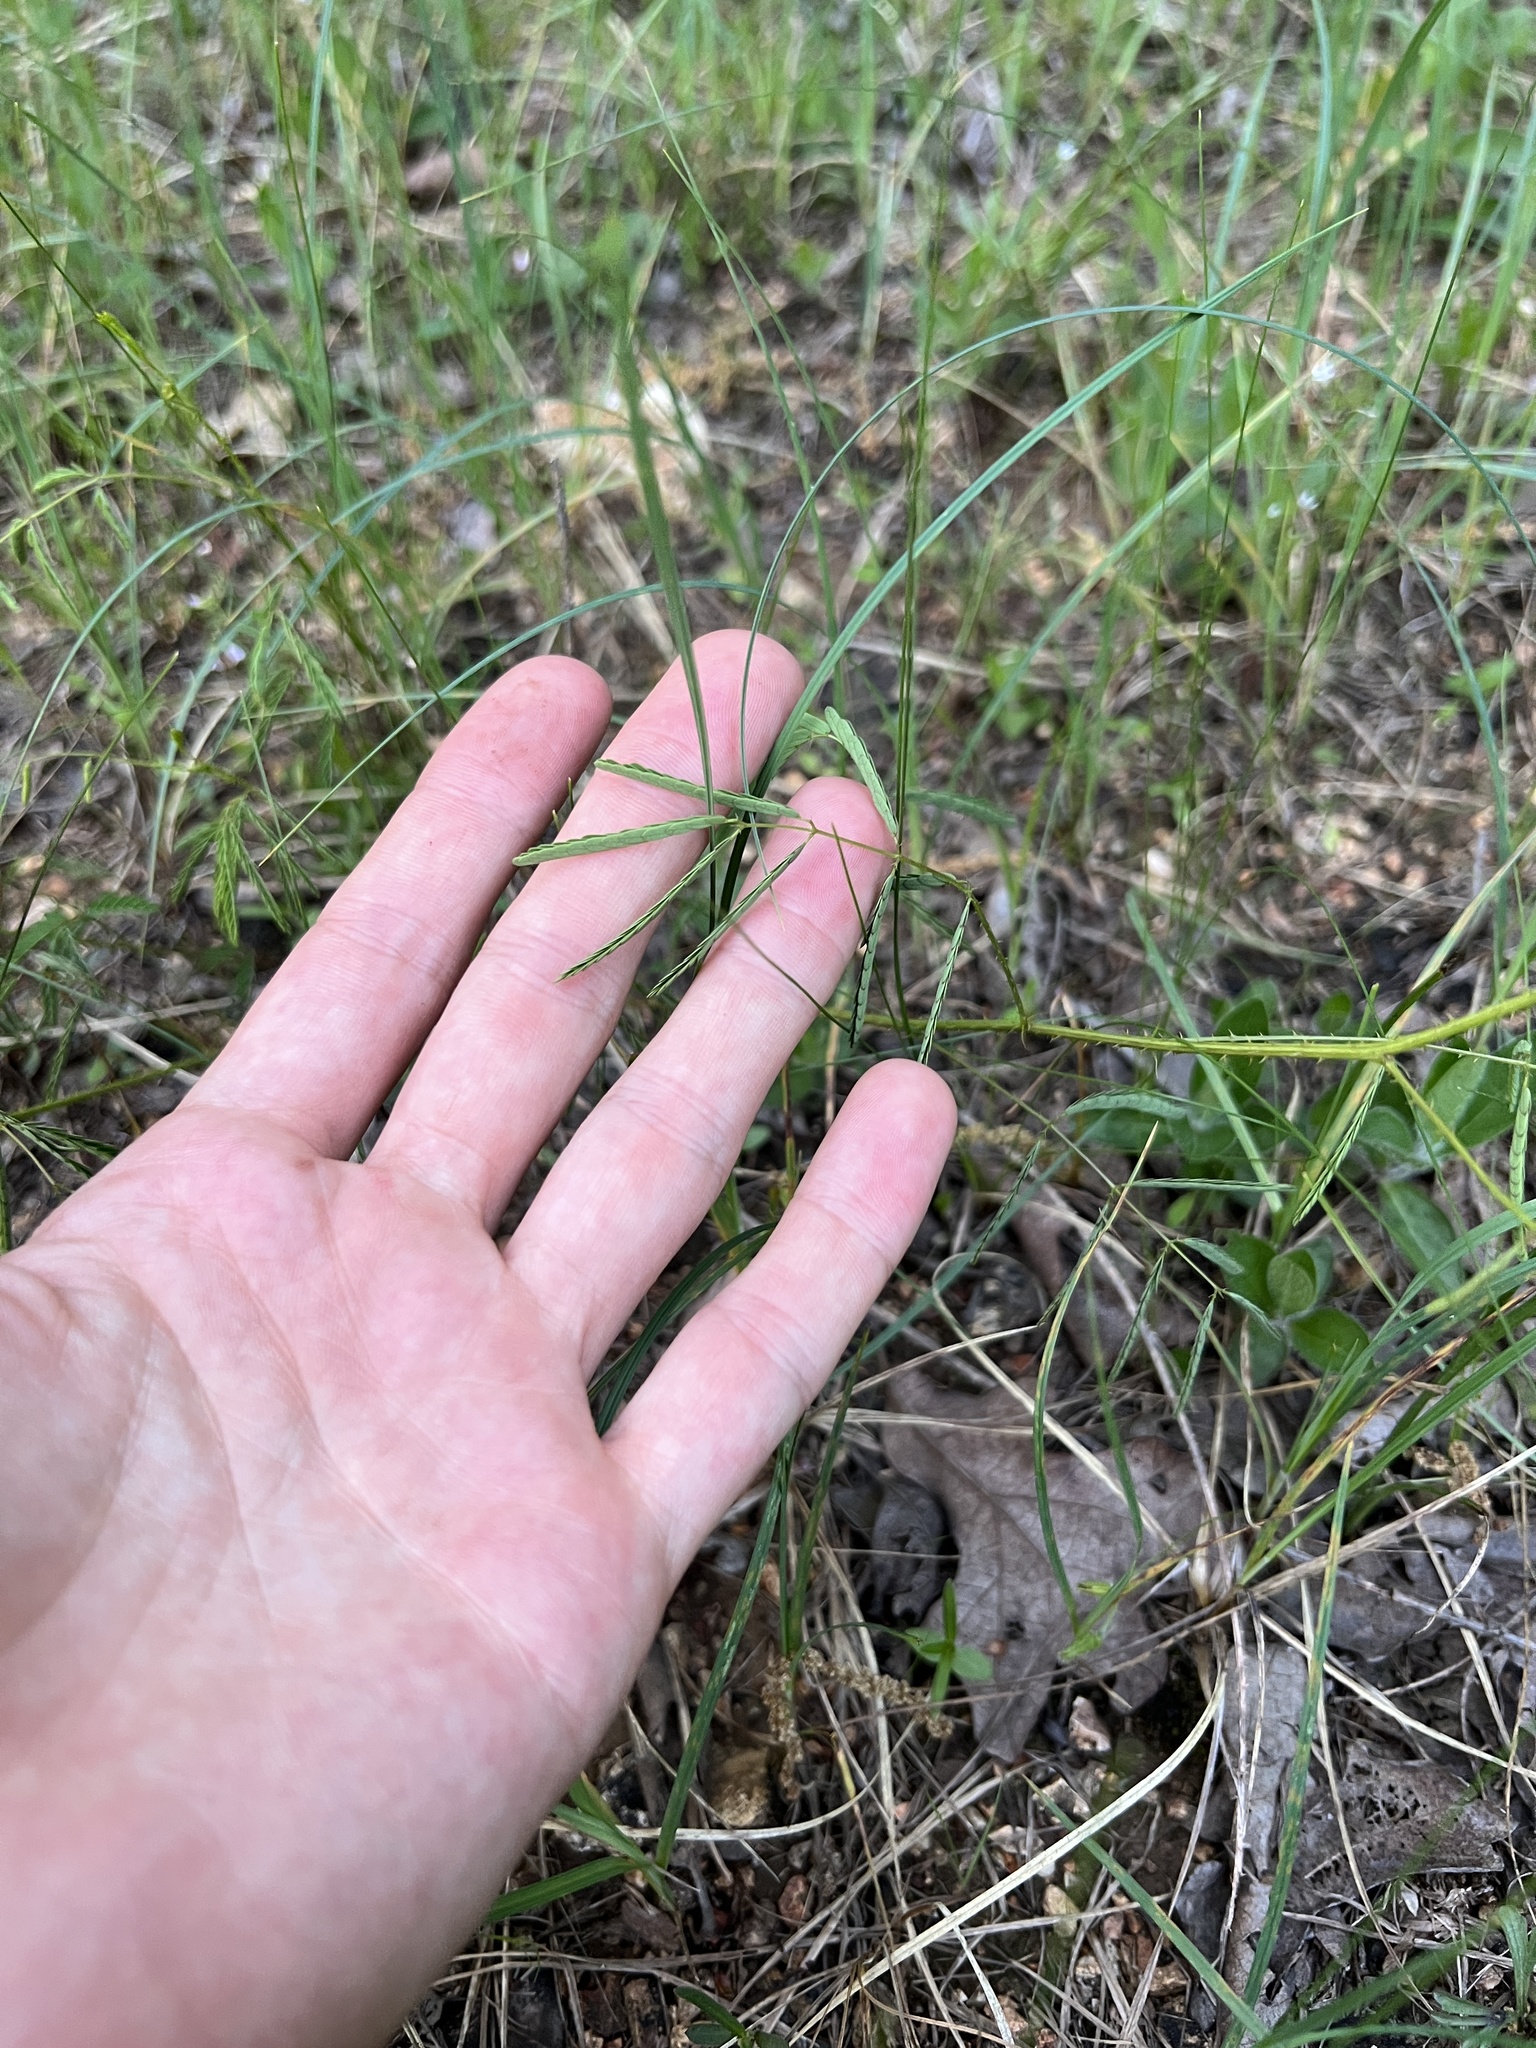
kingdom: Plantae
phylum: Tracheophyta
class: Magnoliopsida
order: Fabales
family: Fabaceae
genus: Mimosa
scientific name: Mimosa quadrivalvis
